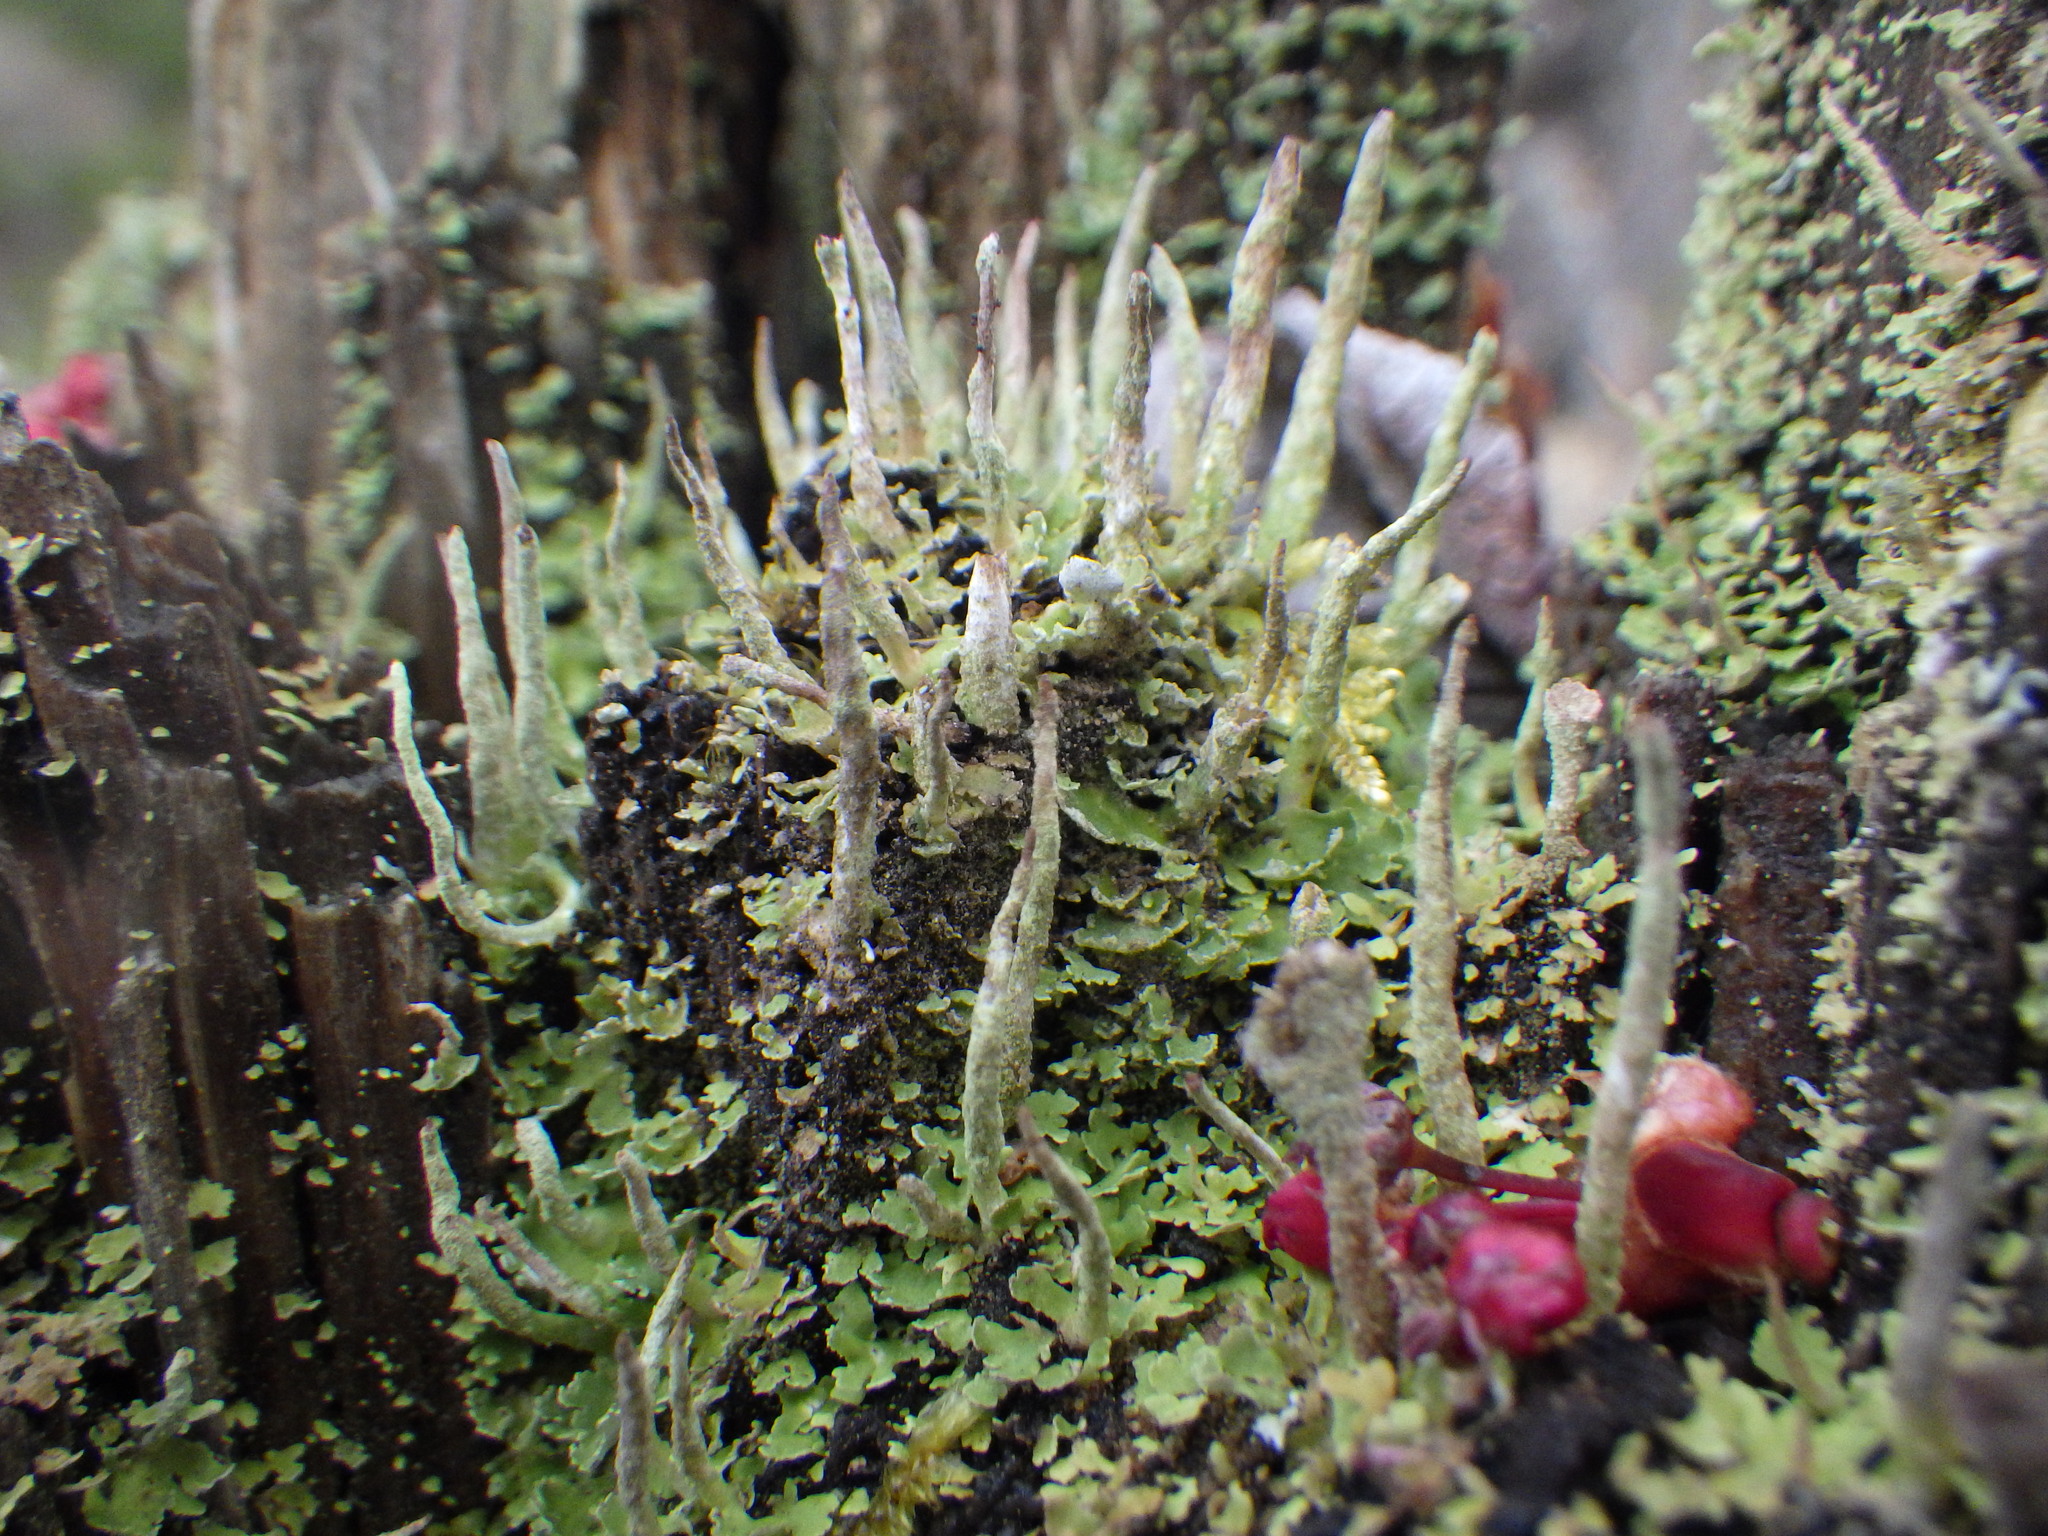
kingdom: Fungi
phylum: Ascomycota
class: Lecanoromycetes
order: Lecanorales
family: Cladoniaceae
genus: Cladonia
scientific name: Cladonia coniocraea
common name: Common powderhorn
